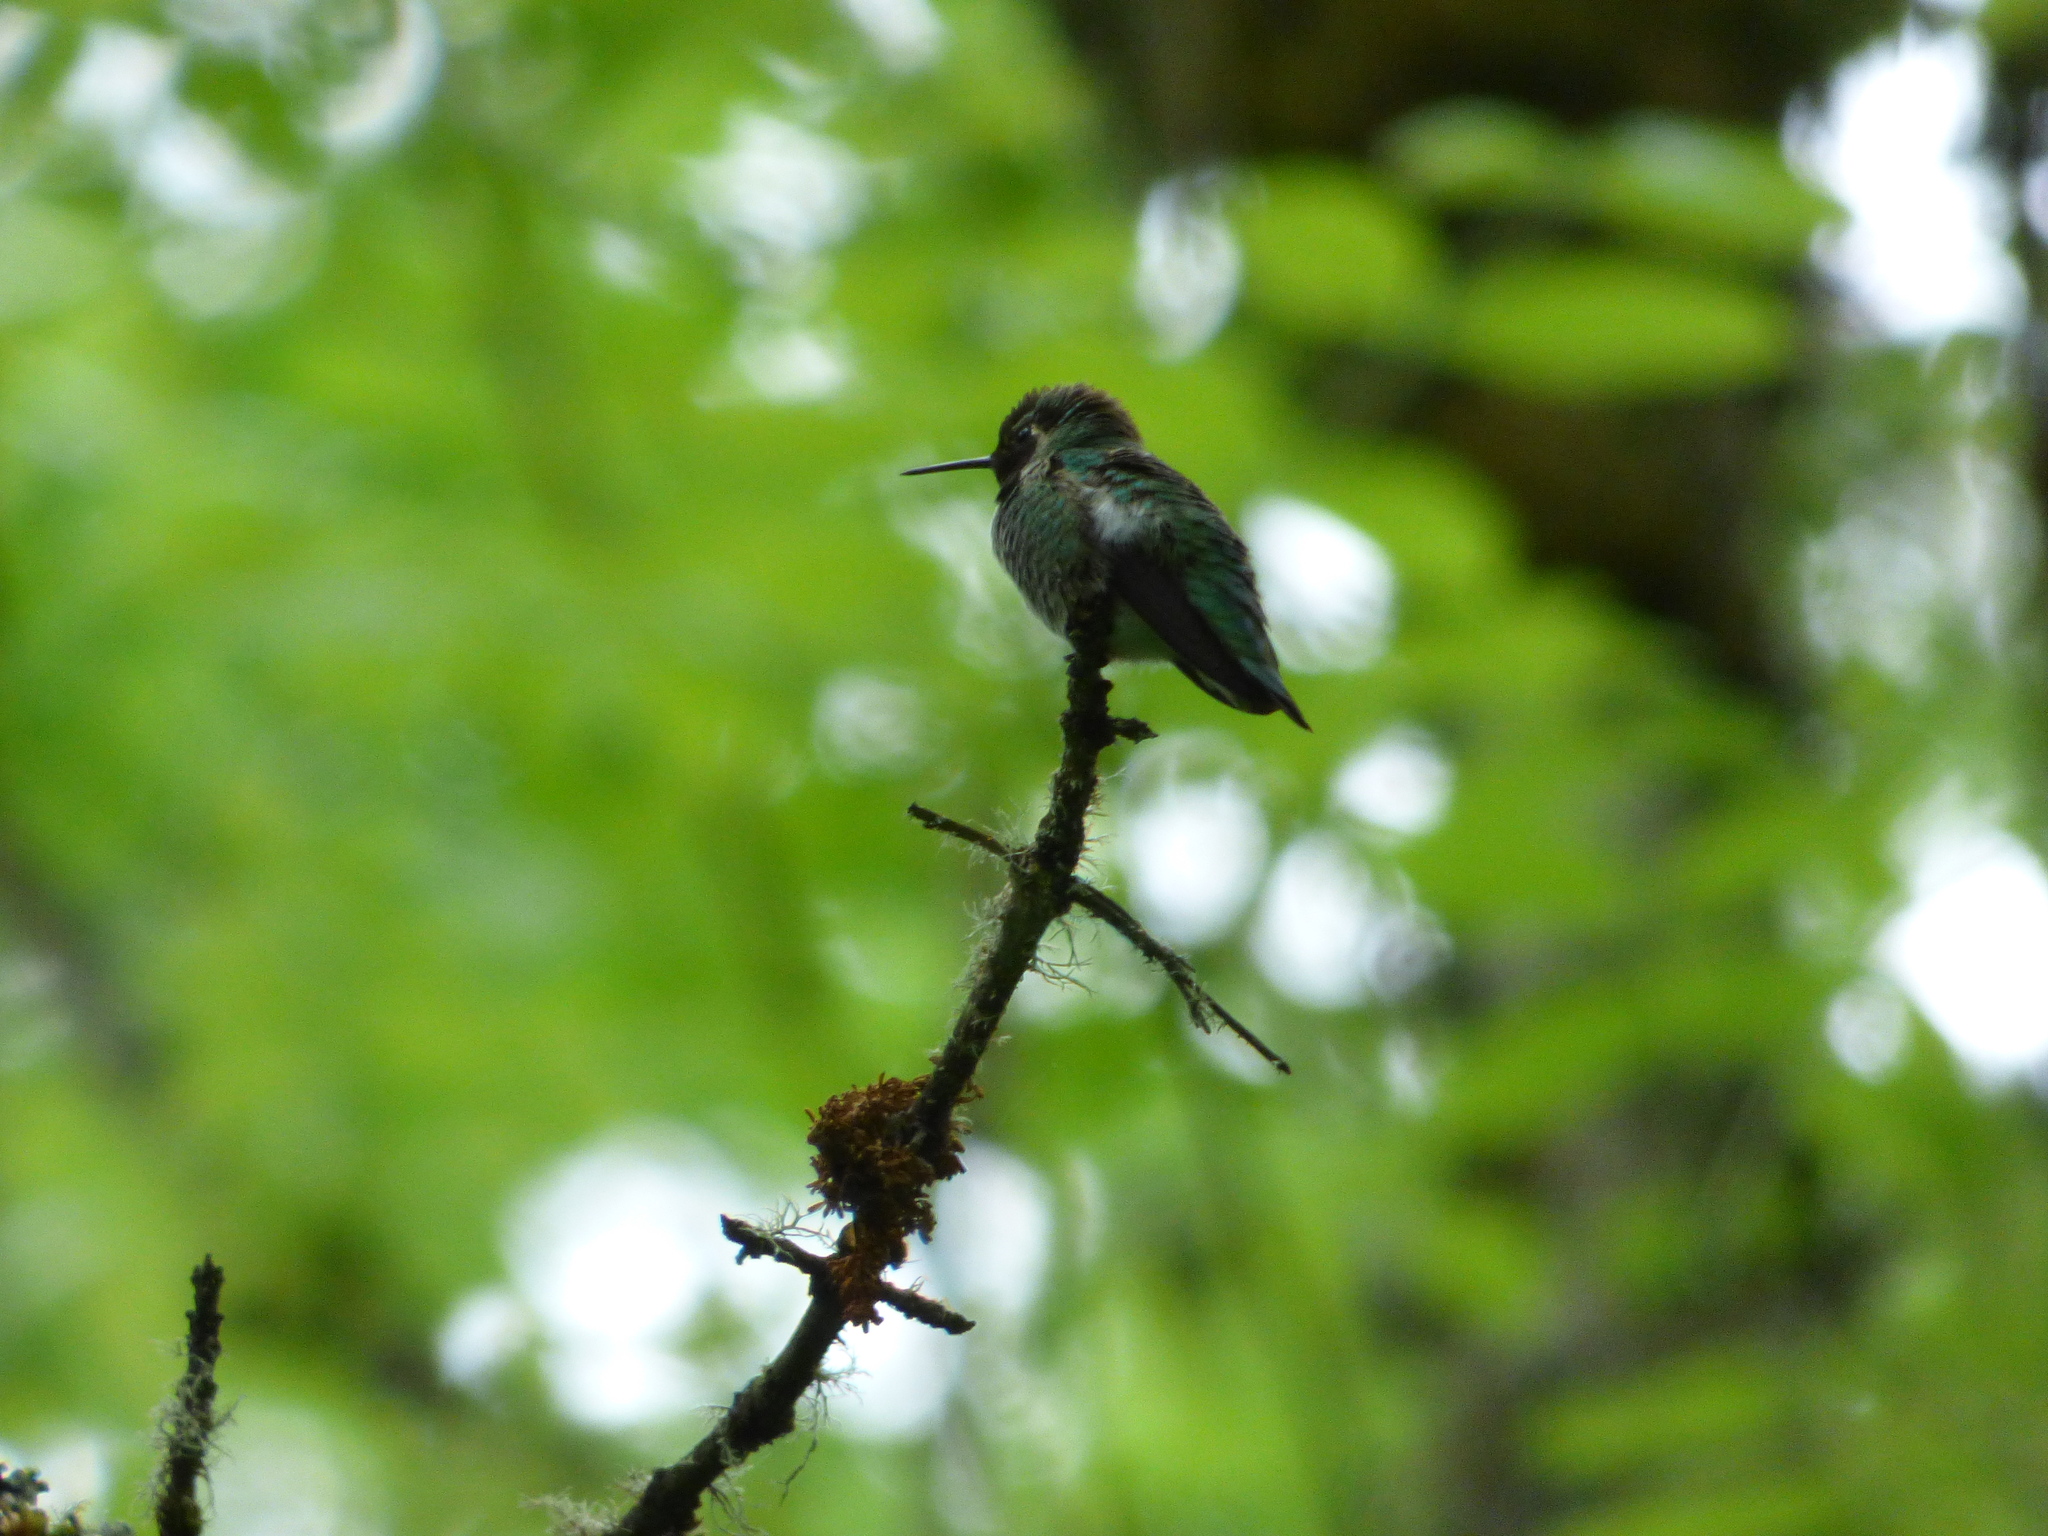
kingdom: Animalia
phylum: Chordata
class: Aves
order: Apodiformes
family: Trochilidae
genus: Calypte
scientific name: Calypte anna
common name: Anna's hummingbird
